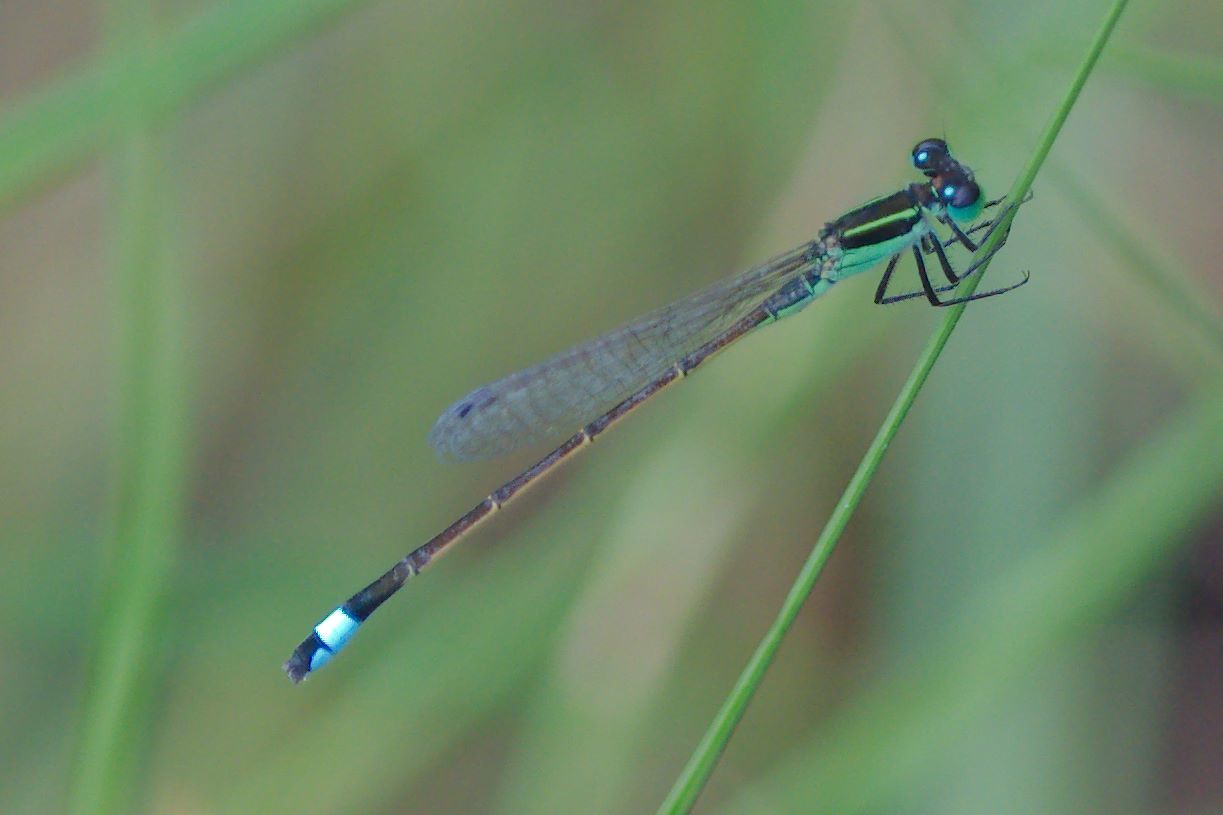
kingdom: Animalia
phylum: Arthropoda
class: Insecta
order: Odonata
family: Coenagrionidae
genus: Ischnura
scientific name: Ischnura ramburii
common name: Rambur's forktail
